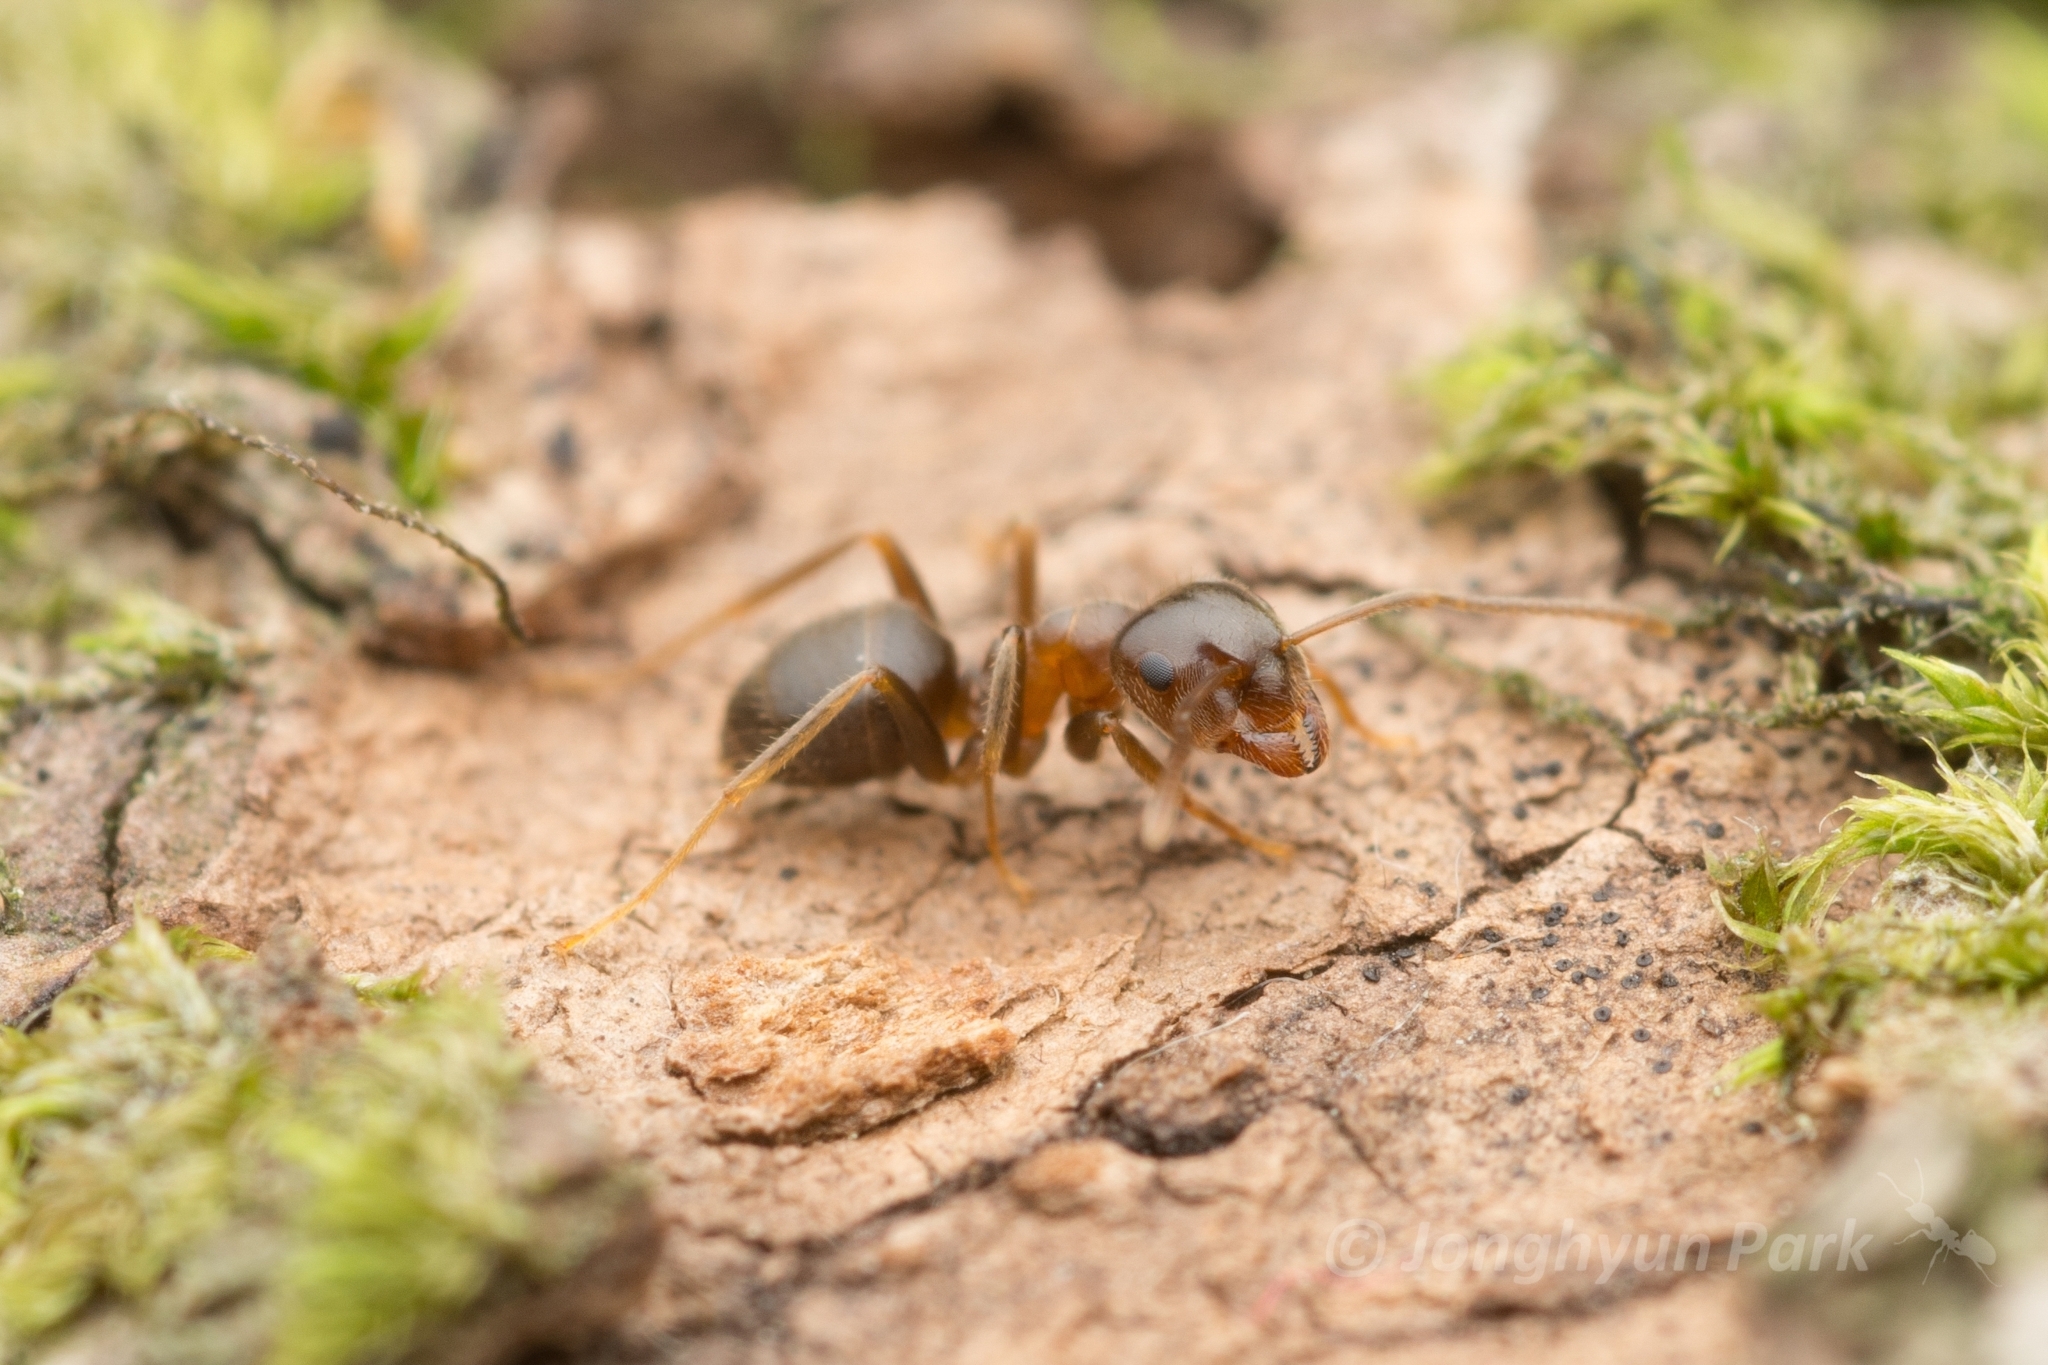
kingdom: Animalia
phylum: Arthropoda
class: Insecta
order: Hymenoptera
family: Formicidae
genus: Lasius
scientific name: Lasius hayashi
